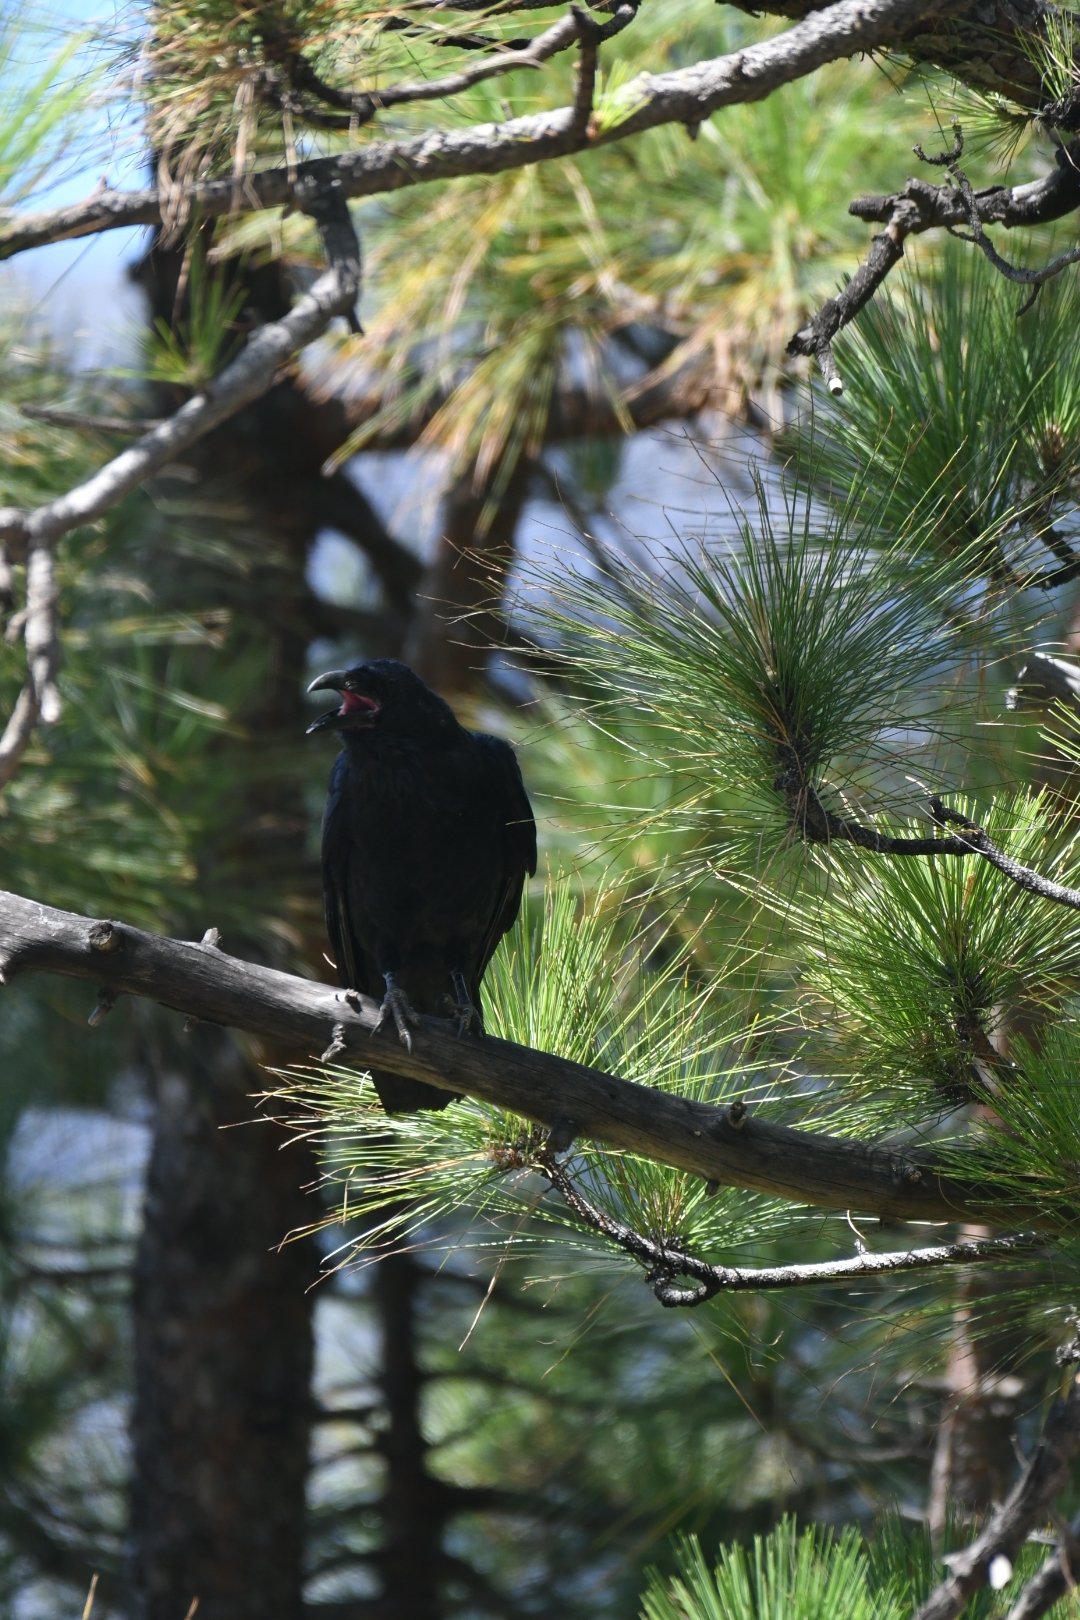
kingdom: Animalia
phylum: Chordata
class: Aves
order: Passeriformes
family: Corvidae
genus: Corvus
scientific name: Corvus corax
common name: Common raven
